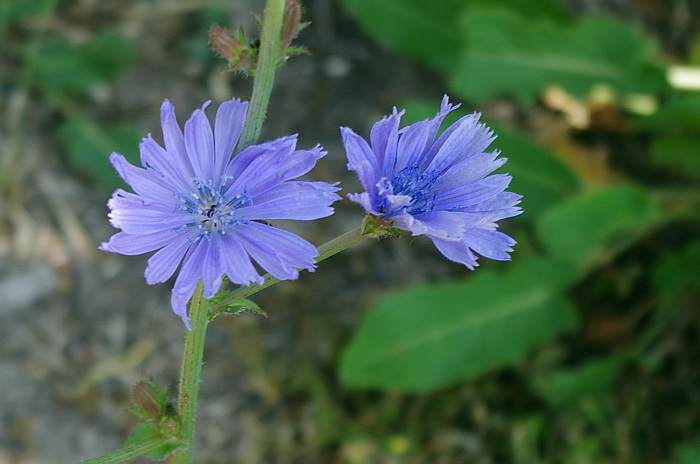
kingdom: Plantae
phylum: Tracheophyta
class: Magnoliopsida
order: Asterales
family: Asteraceae
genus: Cichorium
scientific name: Cichorium intybus
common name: Chicory
